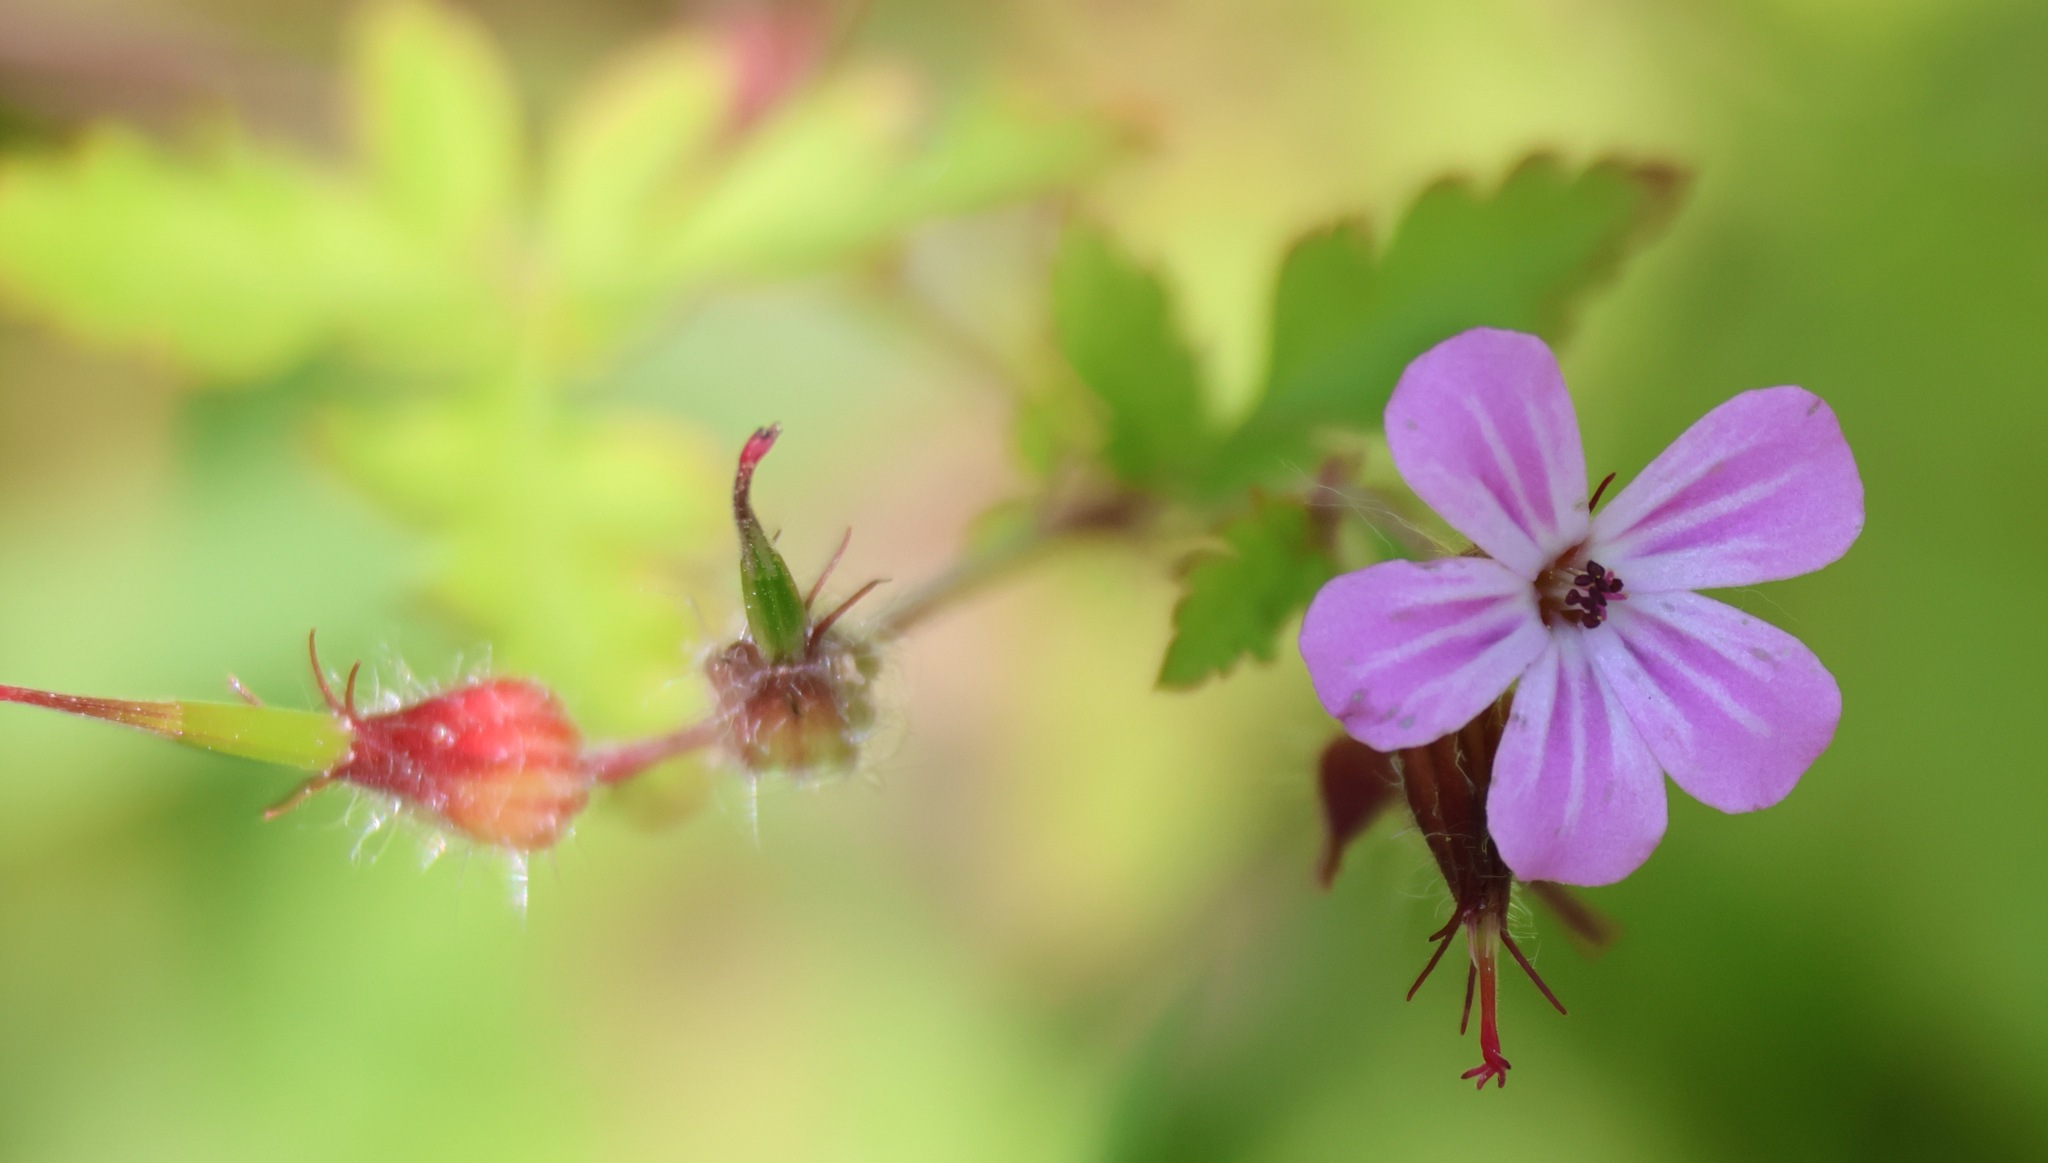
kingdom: Plantae
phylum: Tracheophyta
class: Magnoliopsida
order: Geraniales
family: Geraniaceae
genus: Geranium
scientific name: Geranium robertianum
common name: Herb-robert
